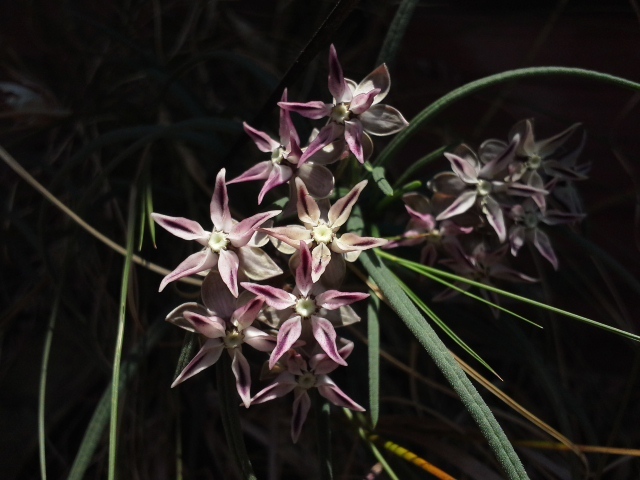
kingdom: Plantae
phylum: Tracheophyta
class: Magnoliopsida
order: Gentianales
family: Apocynaceae
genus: Asclepias
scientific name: Asclepias stellifera
